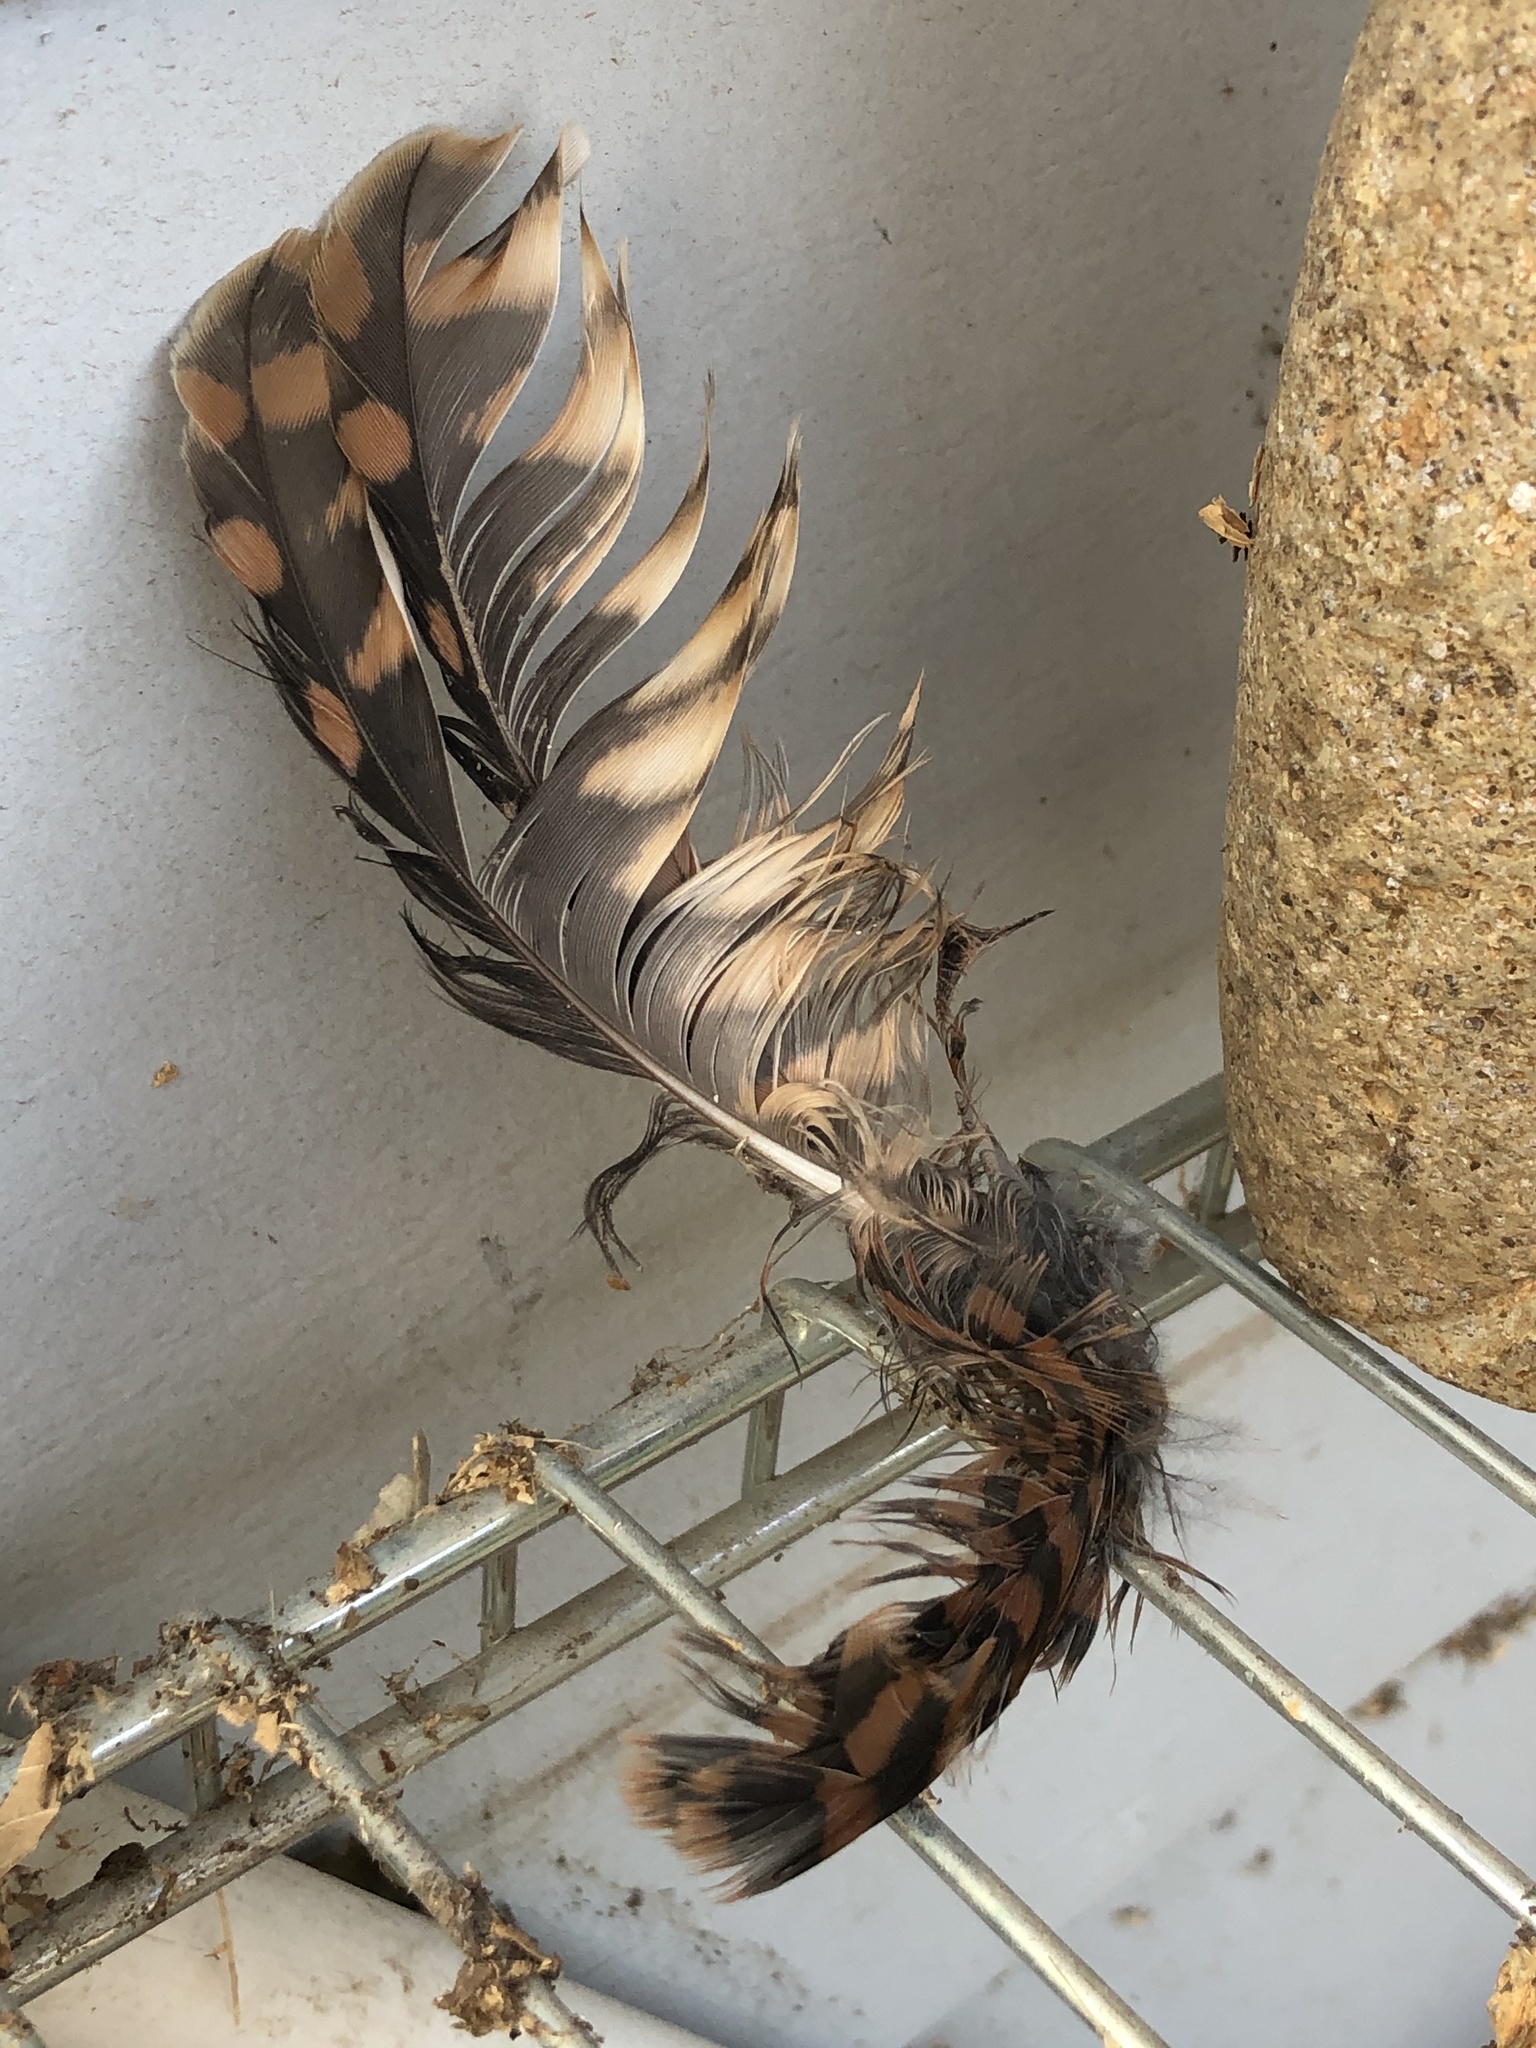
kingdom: Animalia
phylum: Chordata
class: Aves
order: Falconiformes
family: Falconidae
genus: Falco
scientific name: Falco sparverius
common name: American kestrel
